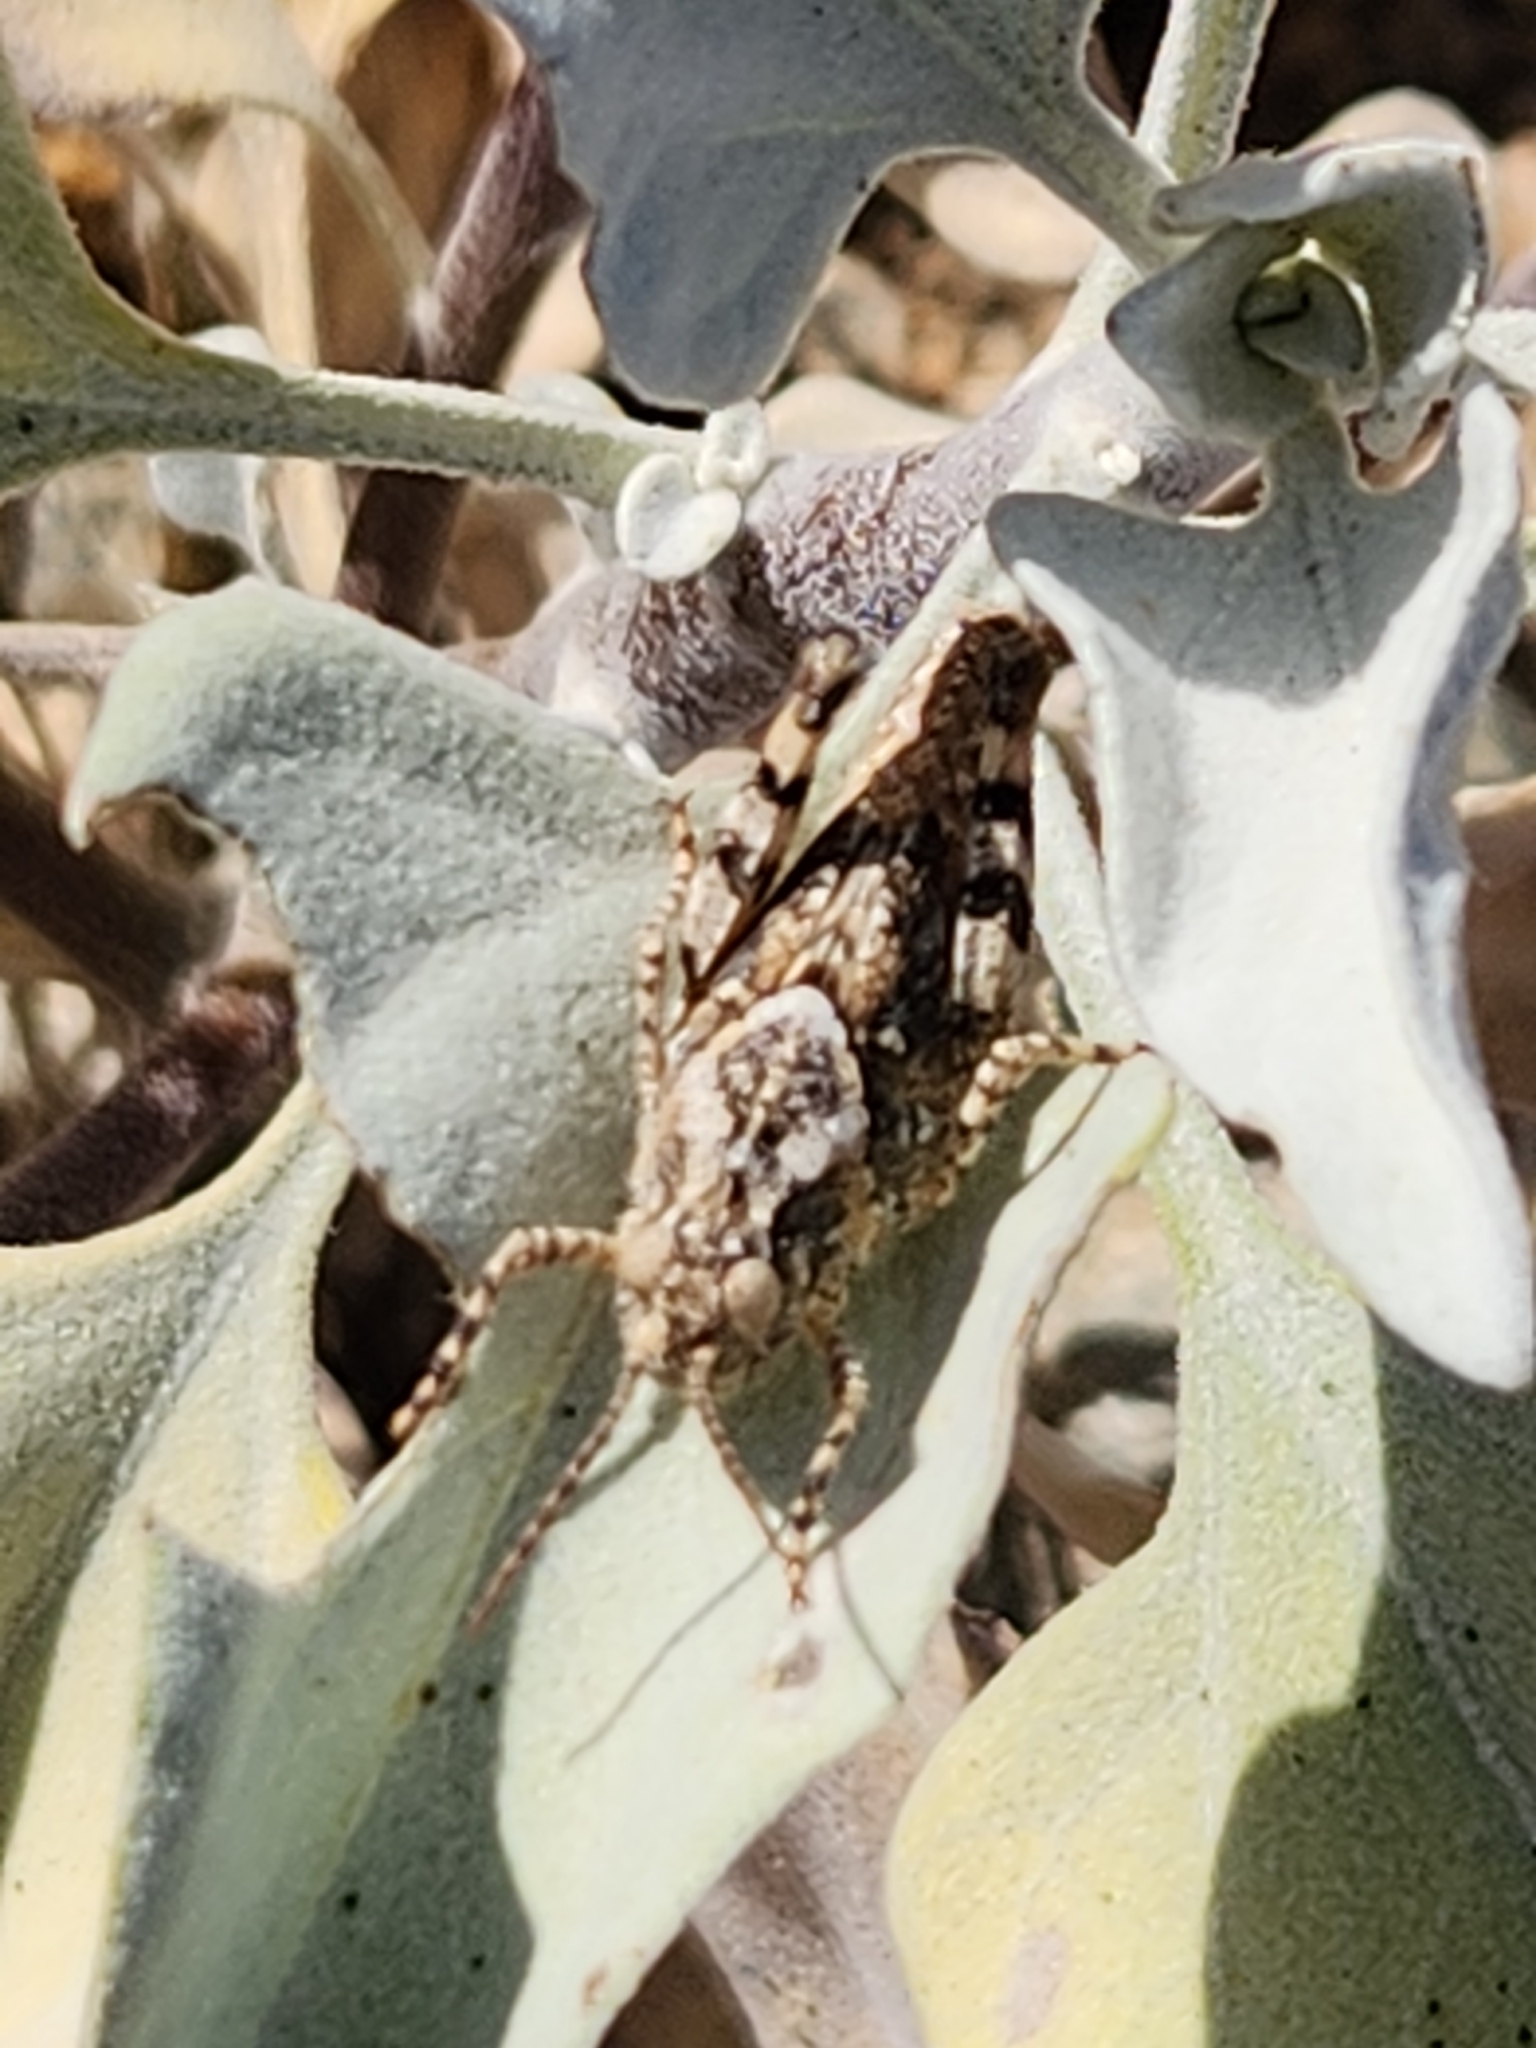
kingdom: Animalia
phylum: Arthropoda
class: Insecta
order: Orthoptera
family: Acrididae
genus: Trimerotropis
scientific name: Trimerotropis pallidipennis
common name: Pallid-winged grasshopper
